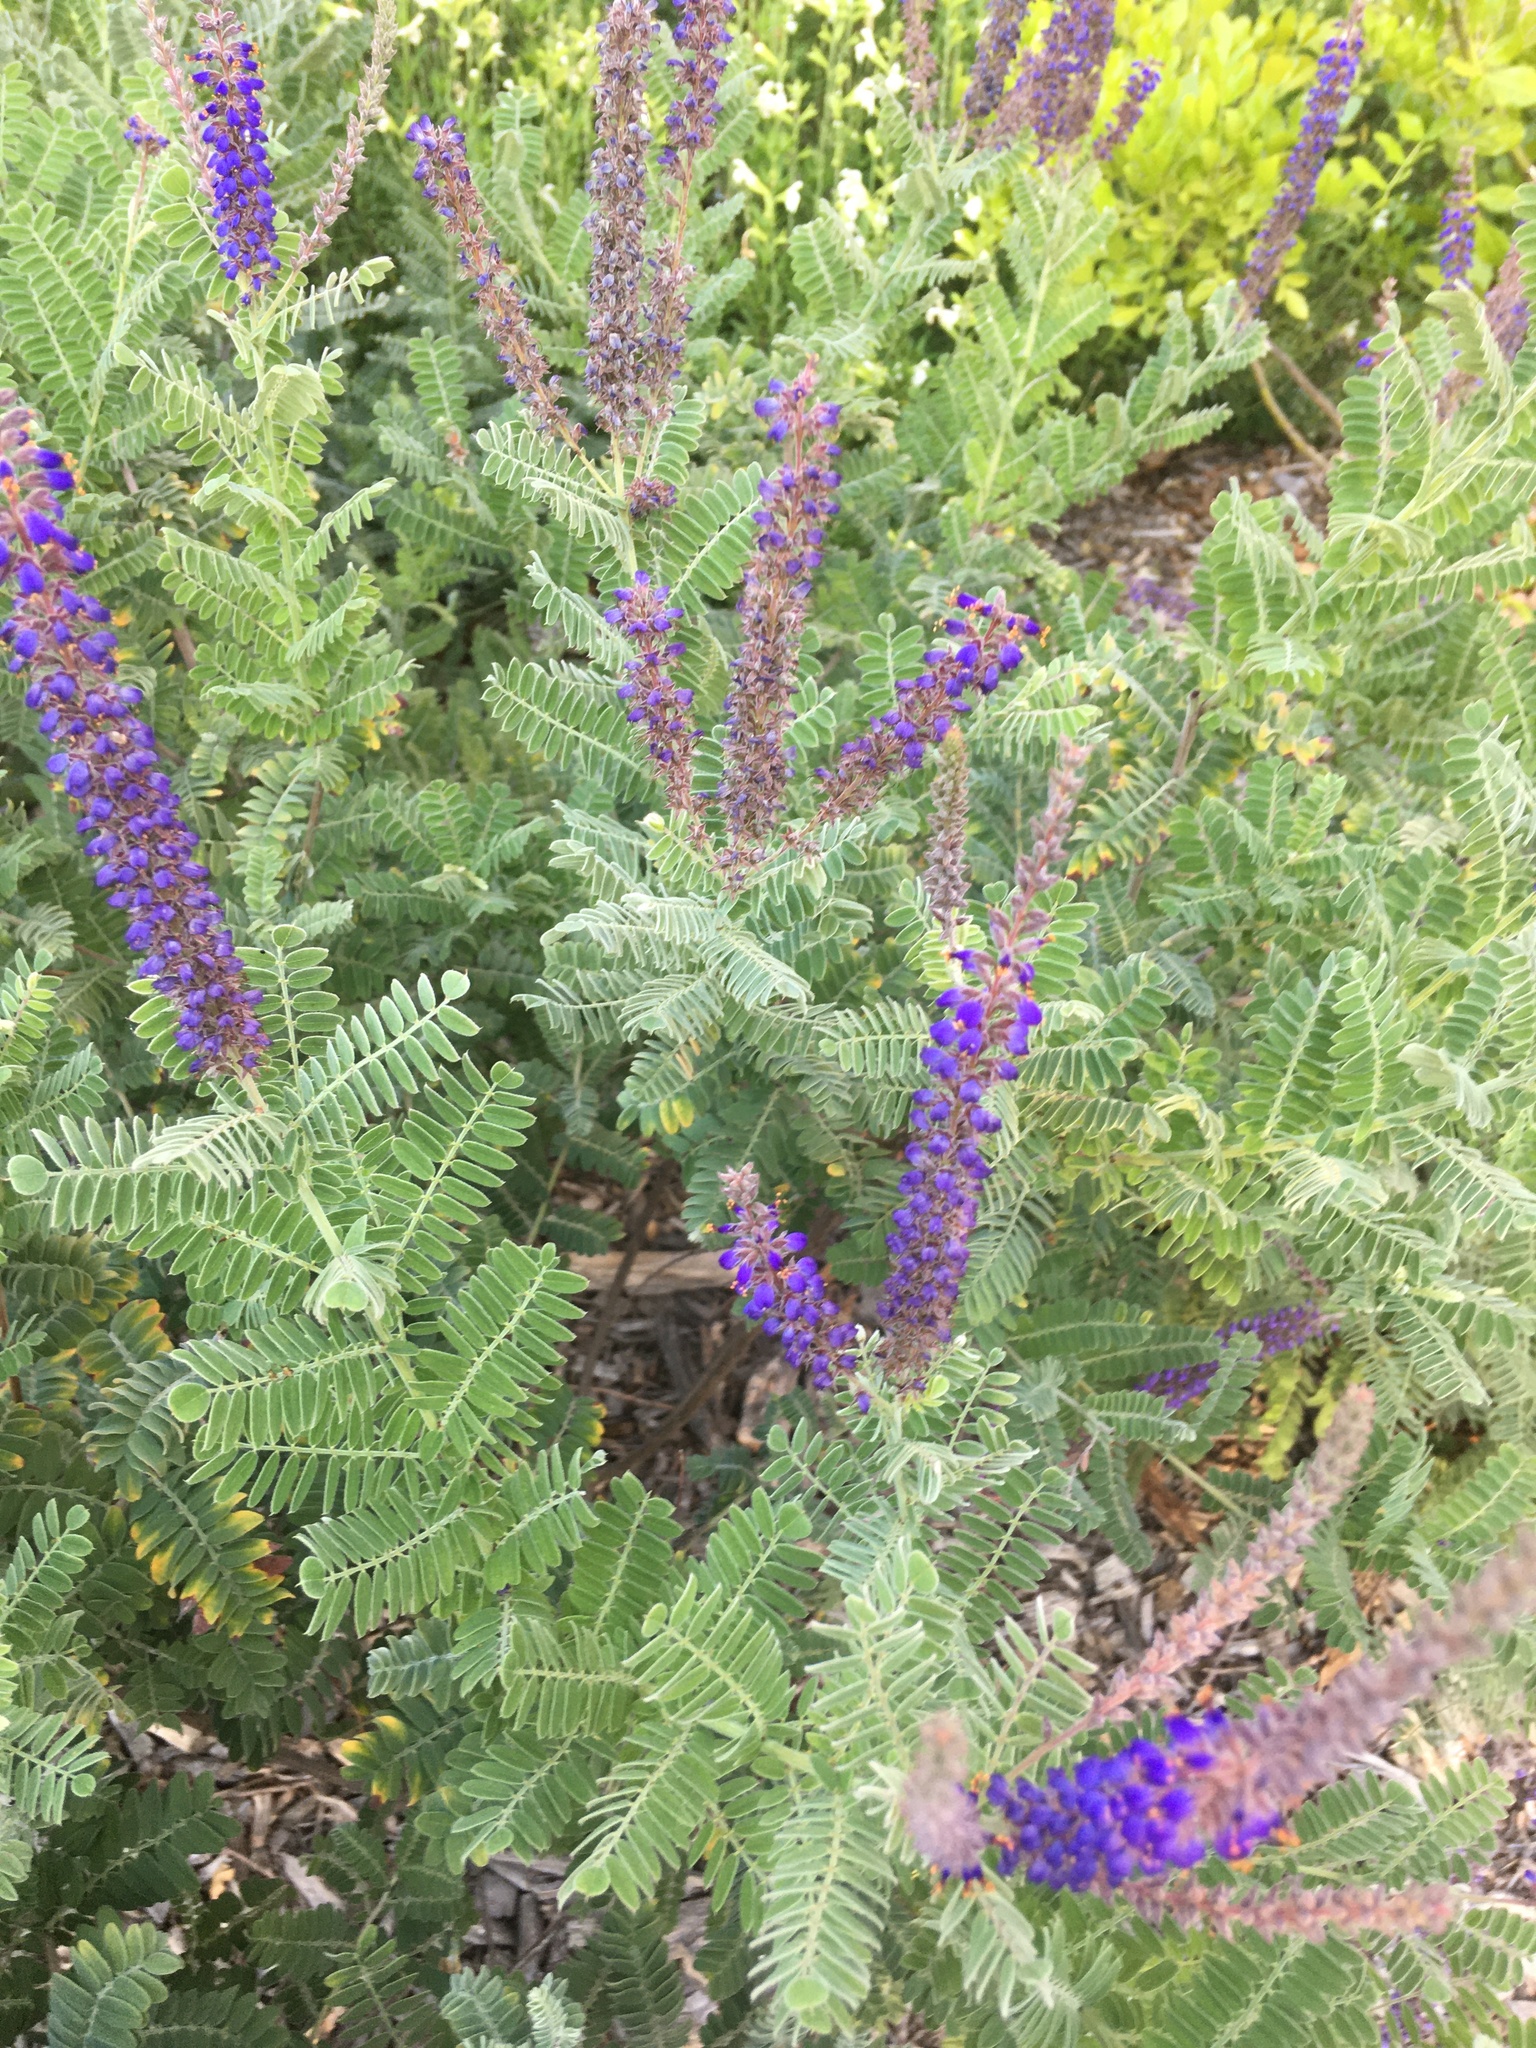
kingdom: Plantae
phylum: Tracheophyta
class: Magnoliopsida
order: Fabales
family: Fabaceae
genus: Amorpha
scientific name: Amorpha canescens
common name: Leadplant
